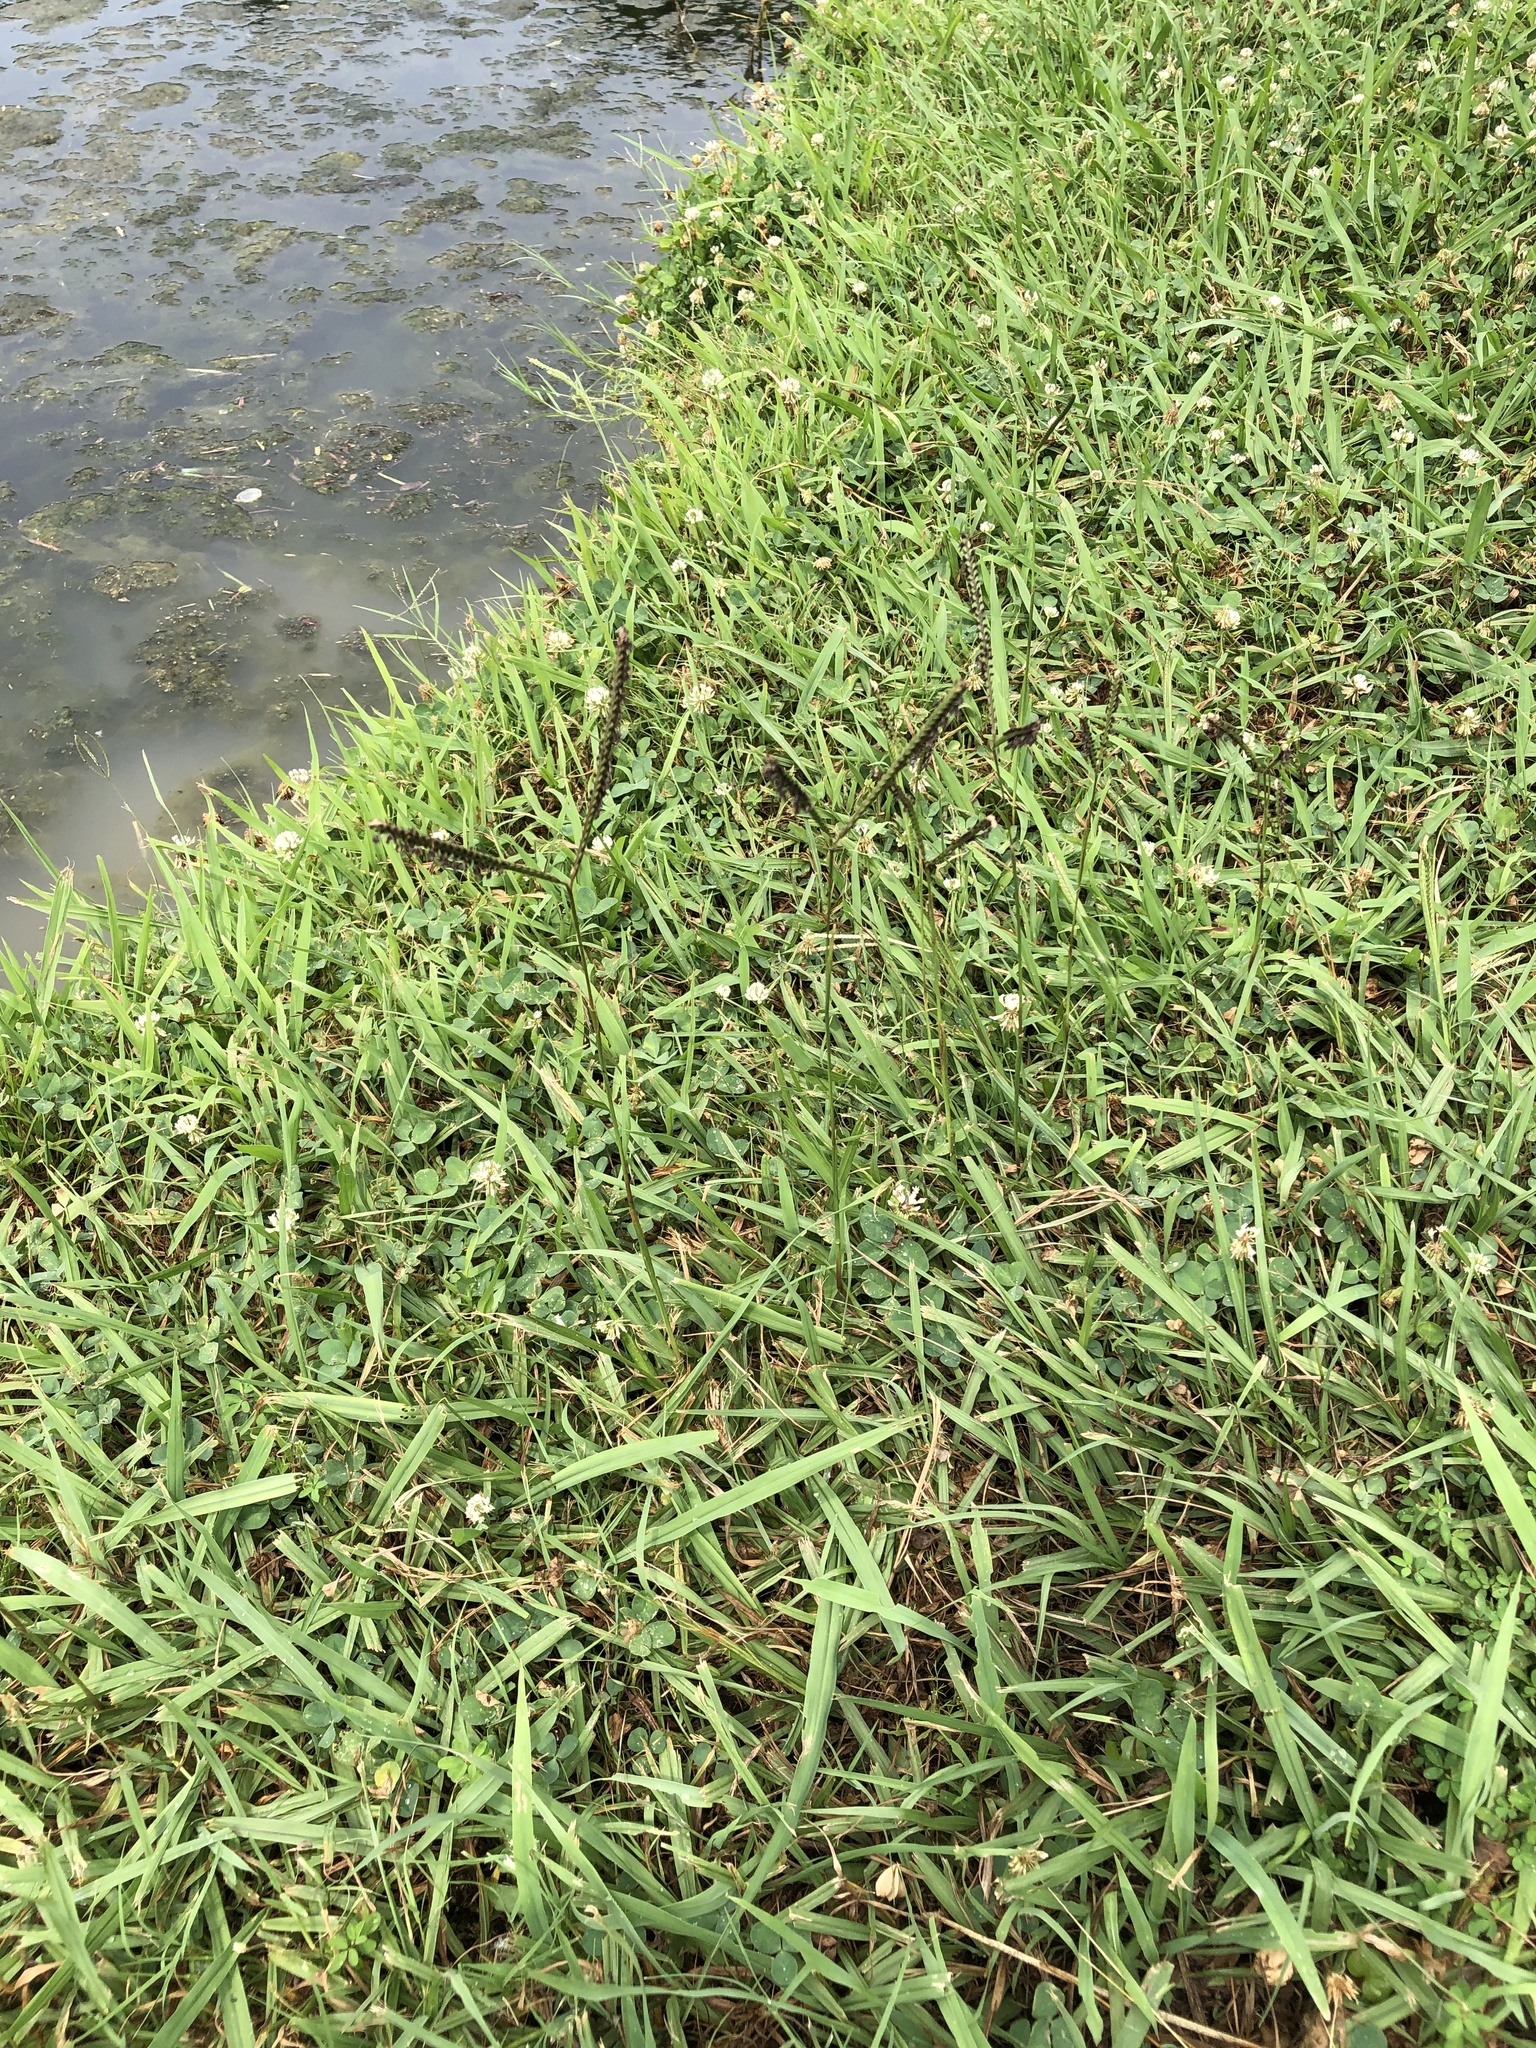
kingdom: Plantae
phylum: Tracheophyta
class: Liliopsida
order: Poales
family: Poaceae
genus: Paspalum
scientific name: Paspalum notatum
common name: Bahiagrass
